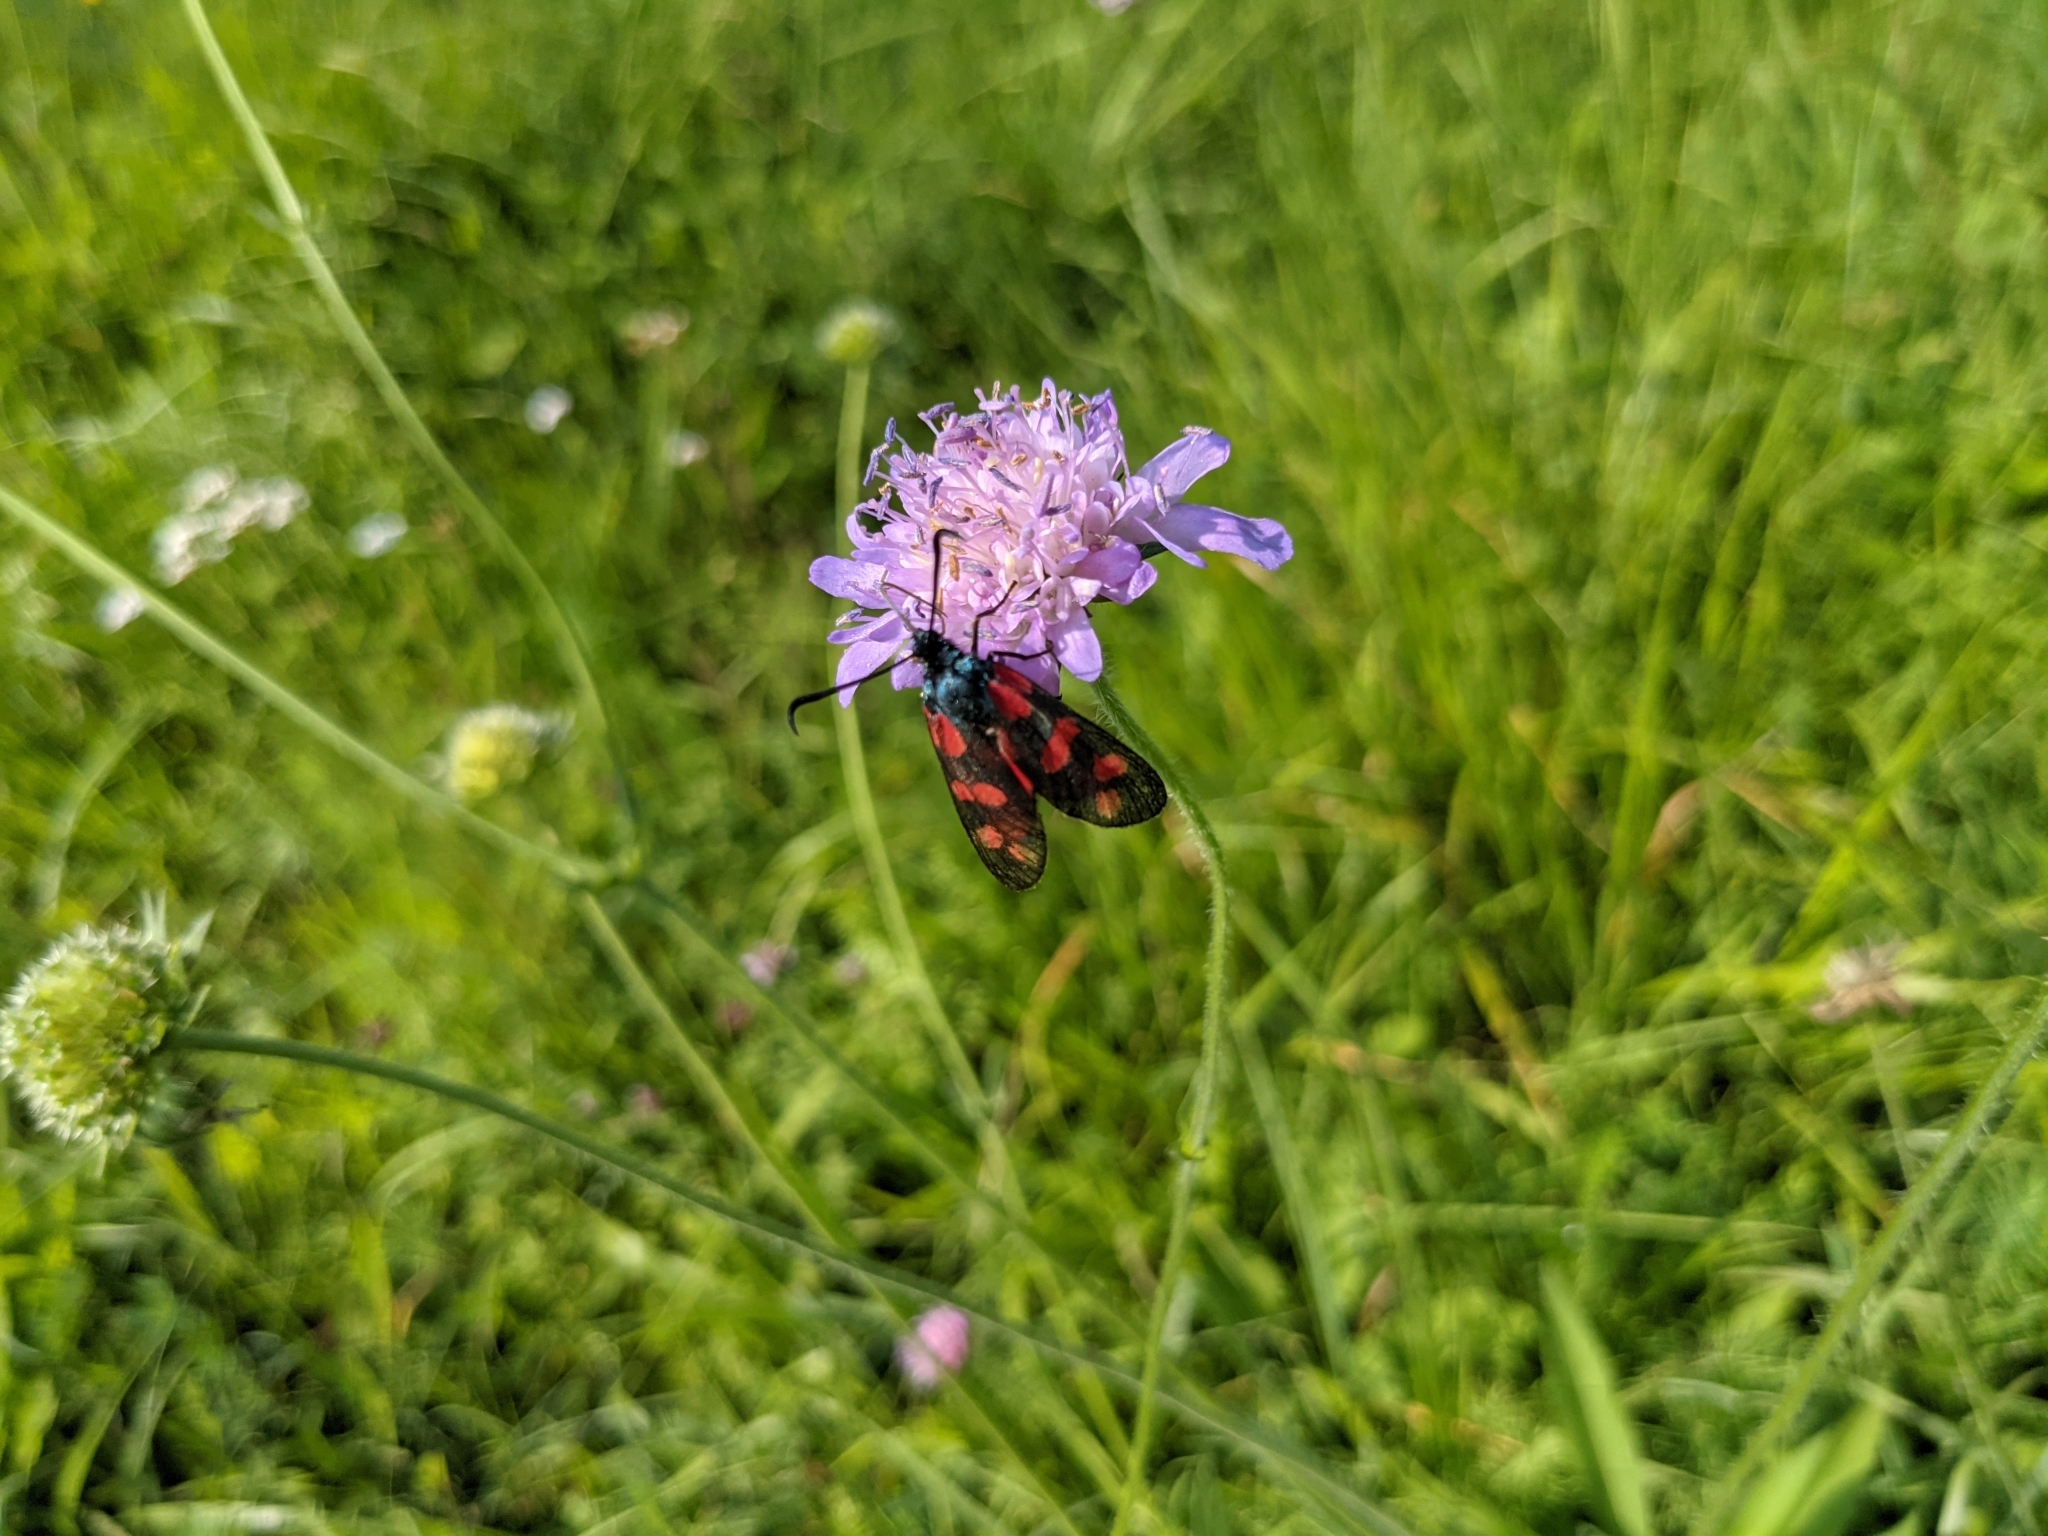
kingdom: Animalia
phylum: Arthropoda
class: Insecta
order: Lepidoptera
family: Zygaenidae
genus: Zygaena
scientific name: Zygaena filipendulae
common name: Six-spot burnet
